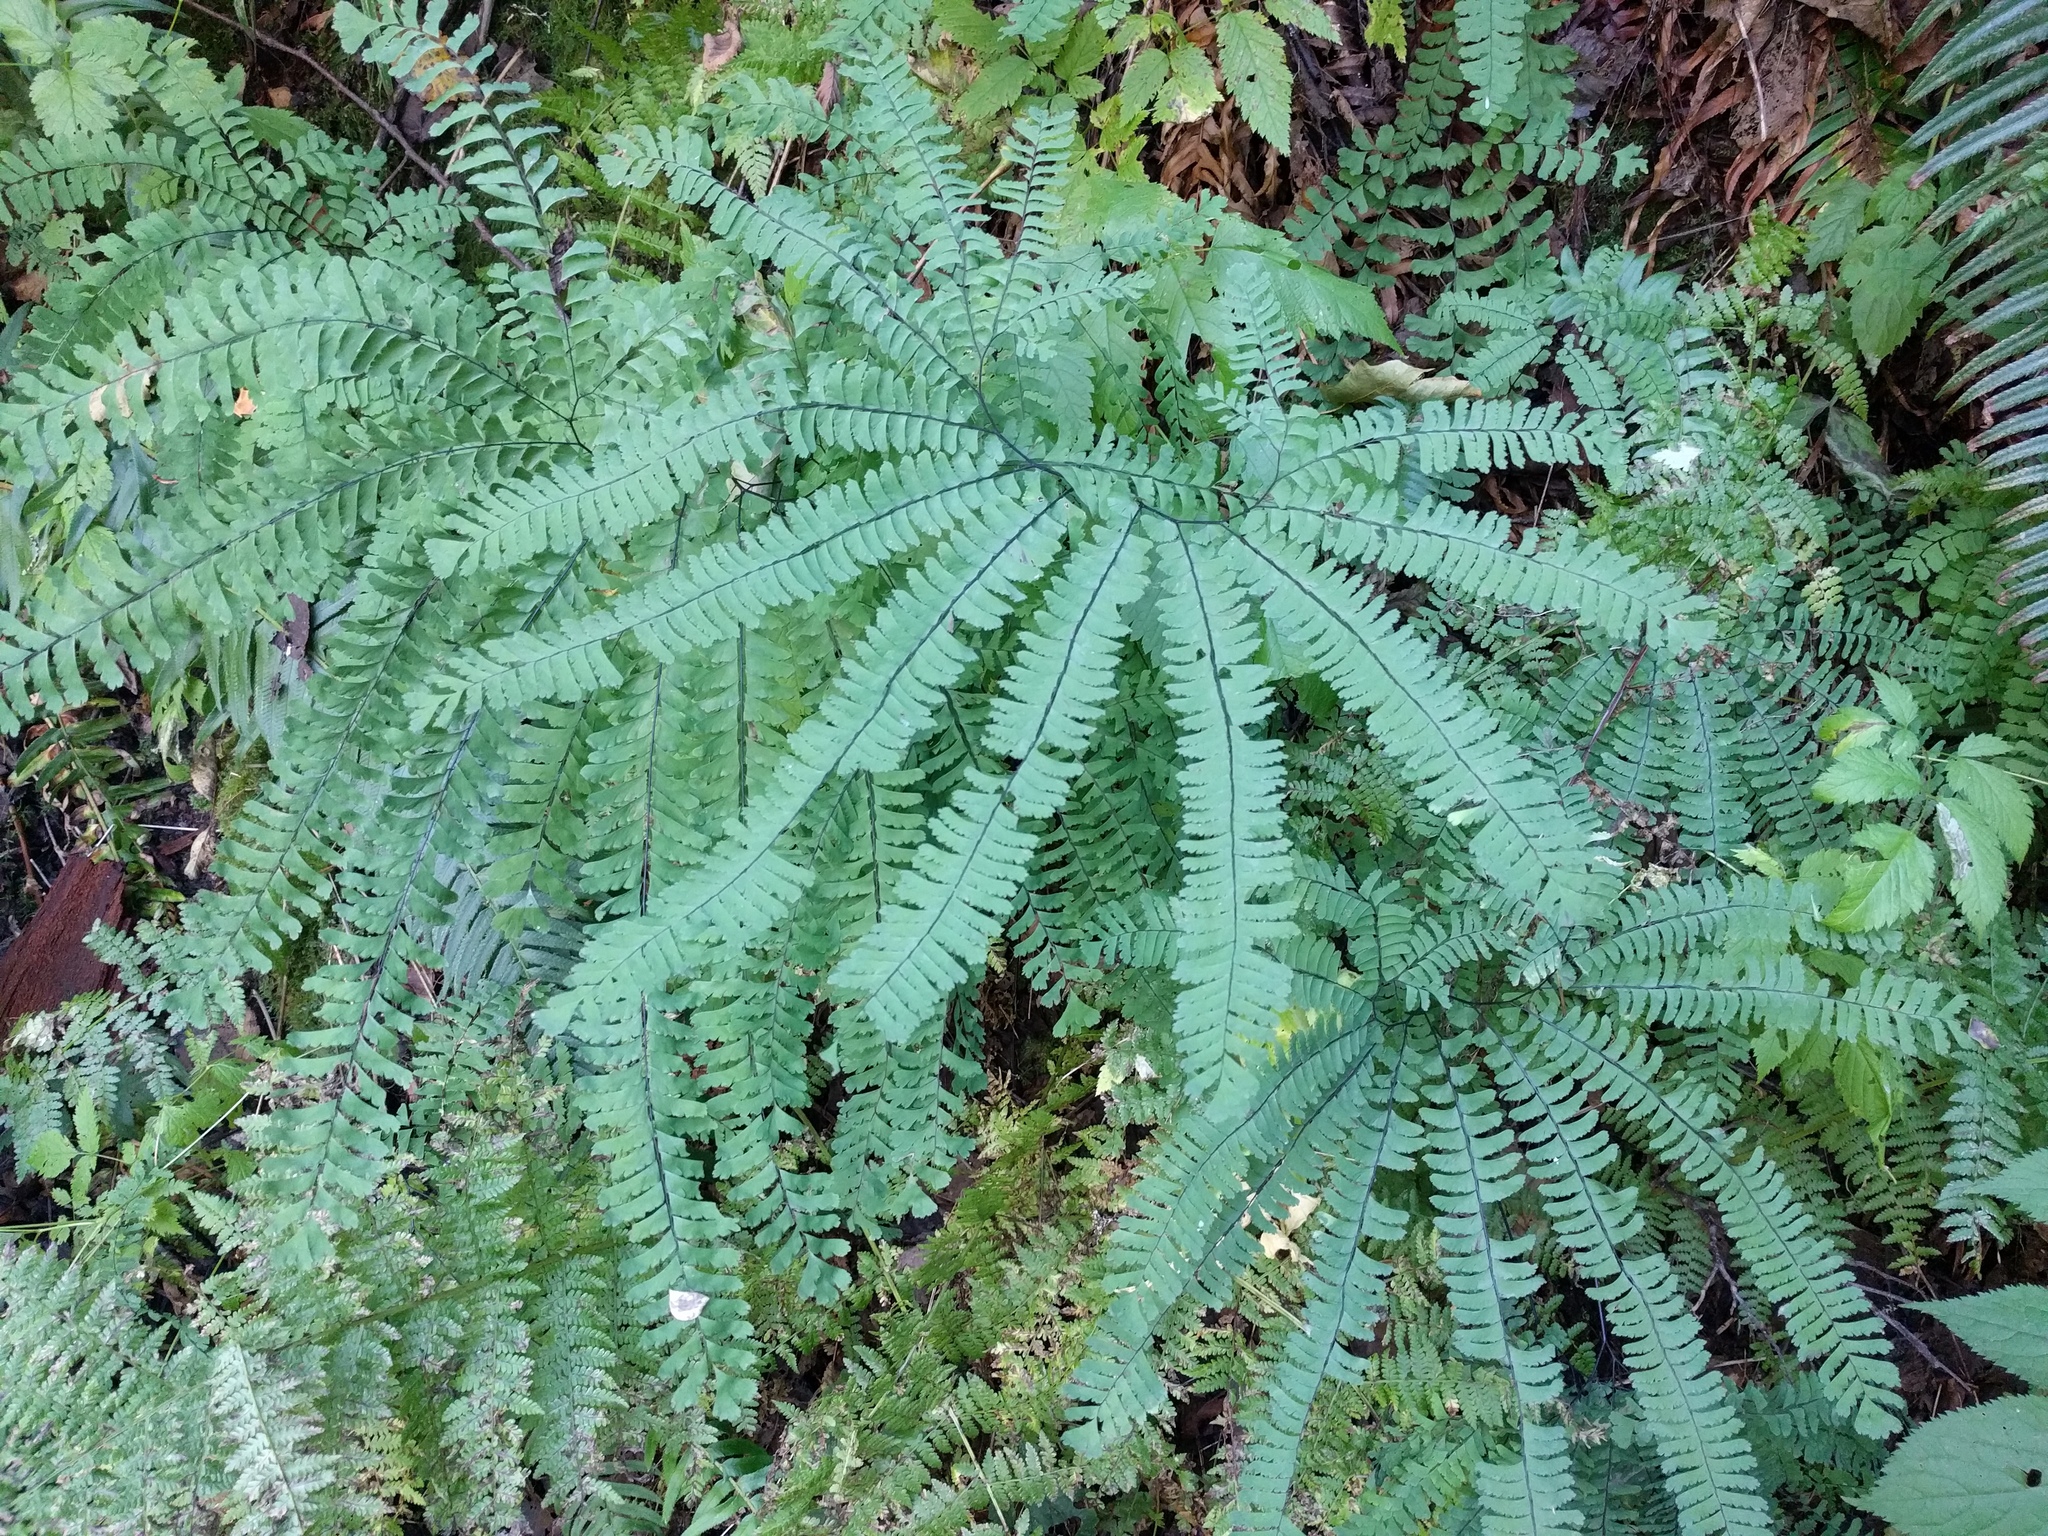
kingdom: Plantae
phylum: Tracheophyta
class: Polypodiopsida
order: Polypodiales
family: Pteridaceae
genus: Adiantum
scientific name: Adiantum aleuticum
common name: Aleutian maidenhair fern
